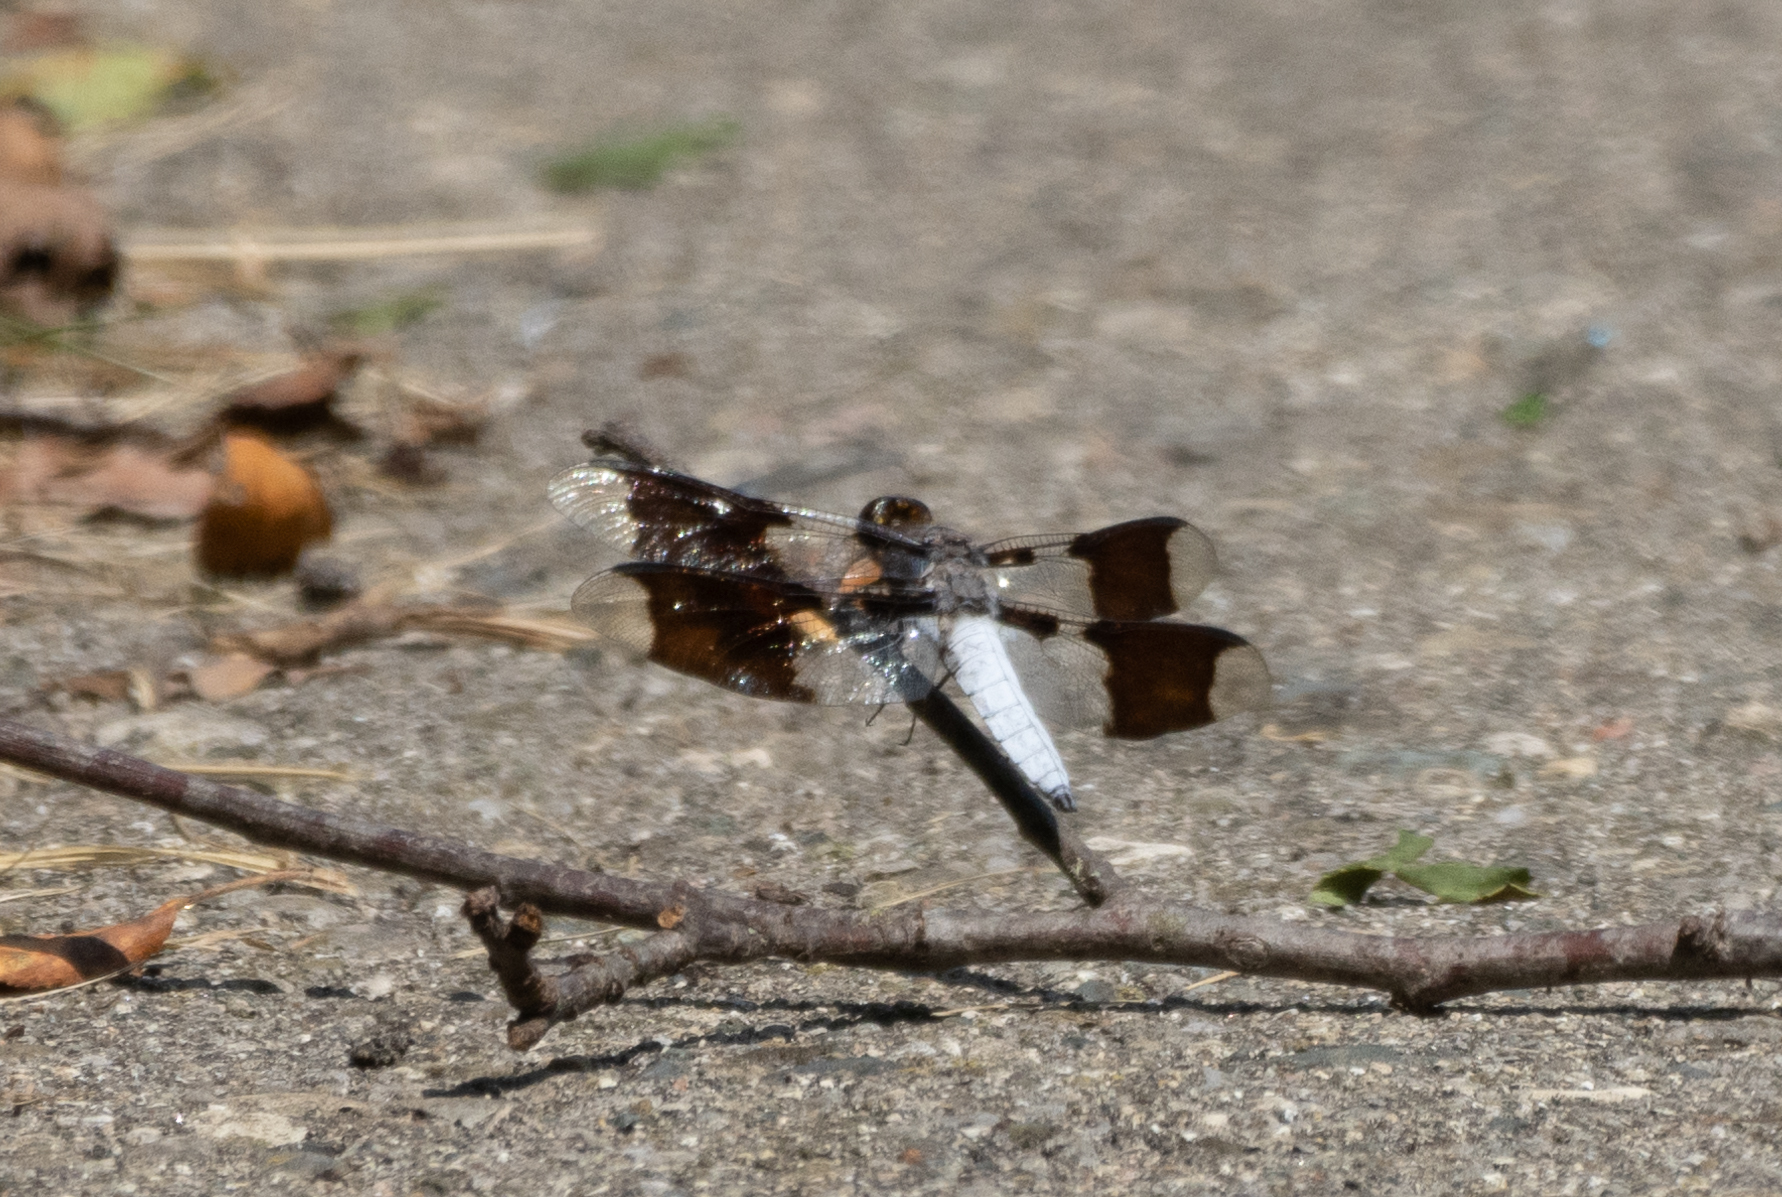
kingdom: Animalia
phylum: Arthropoda
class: Insecta
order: Odonata
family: Libellulidae
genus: Plathemis
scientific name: Plathemis lydia
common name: Common whitetail
